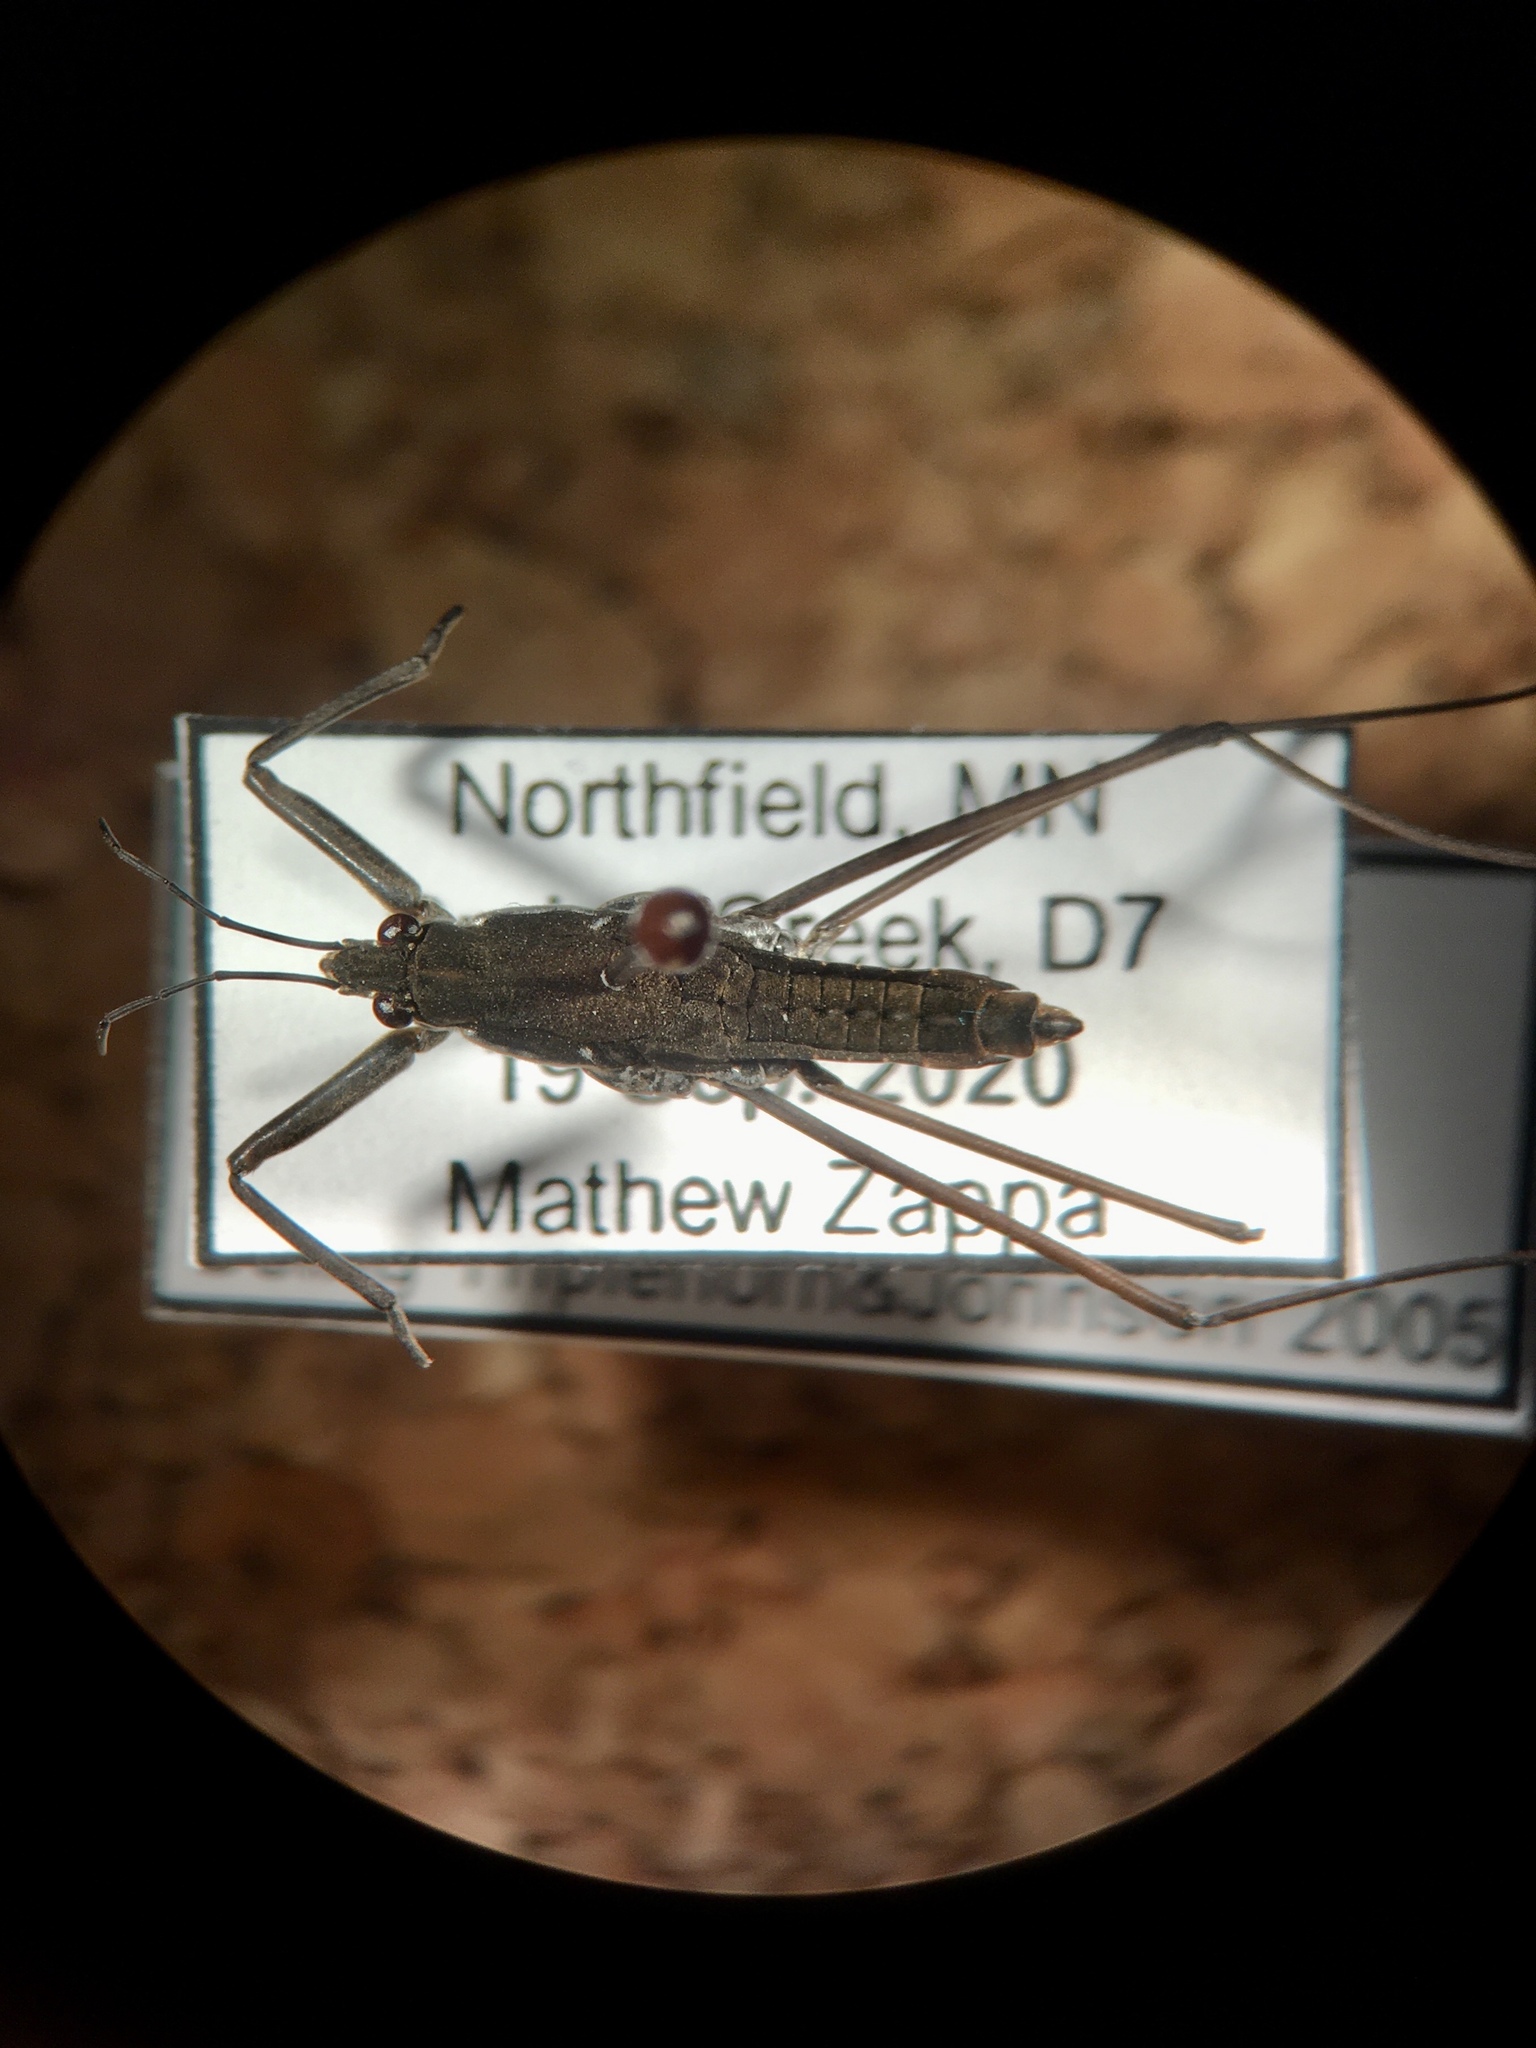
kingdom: Animalia
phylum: Arthropoda
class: Insecta
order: Hemiptera
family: Gerridae
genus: Aquarius
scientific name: Aquarius remigis
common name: Common water strider
